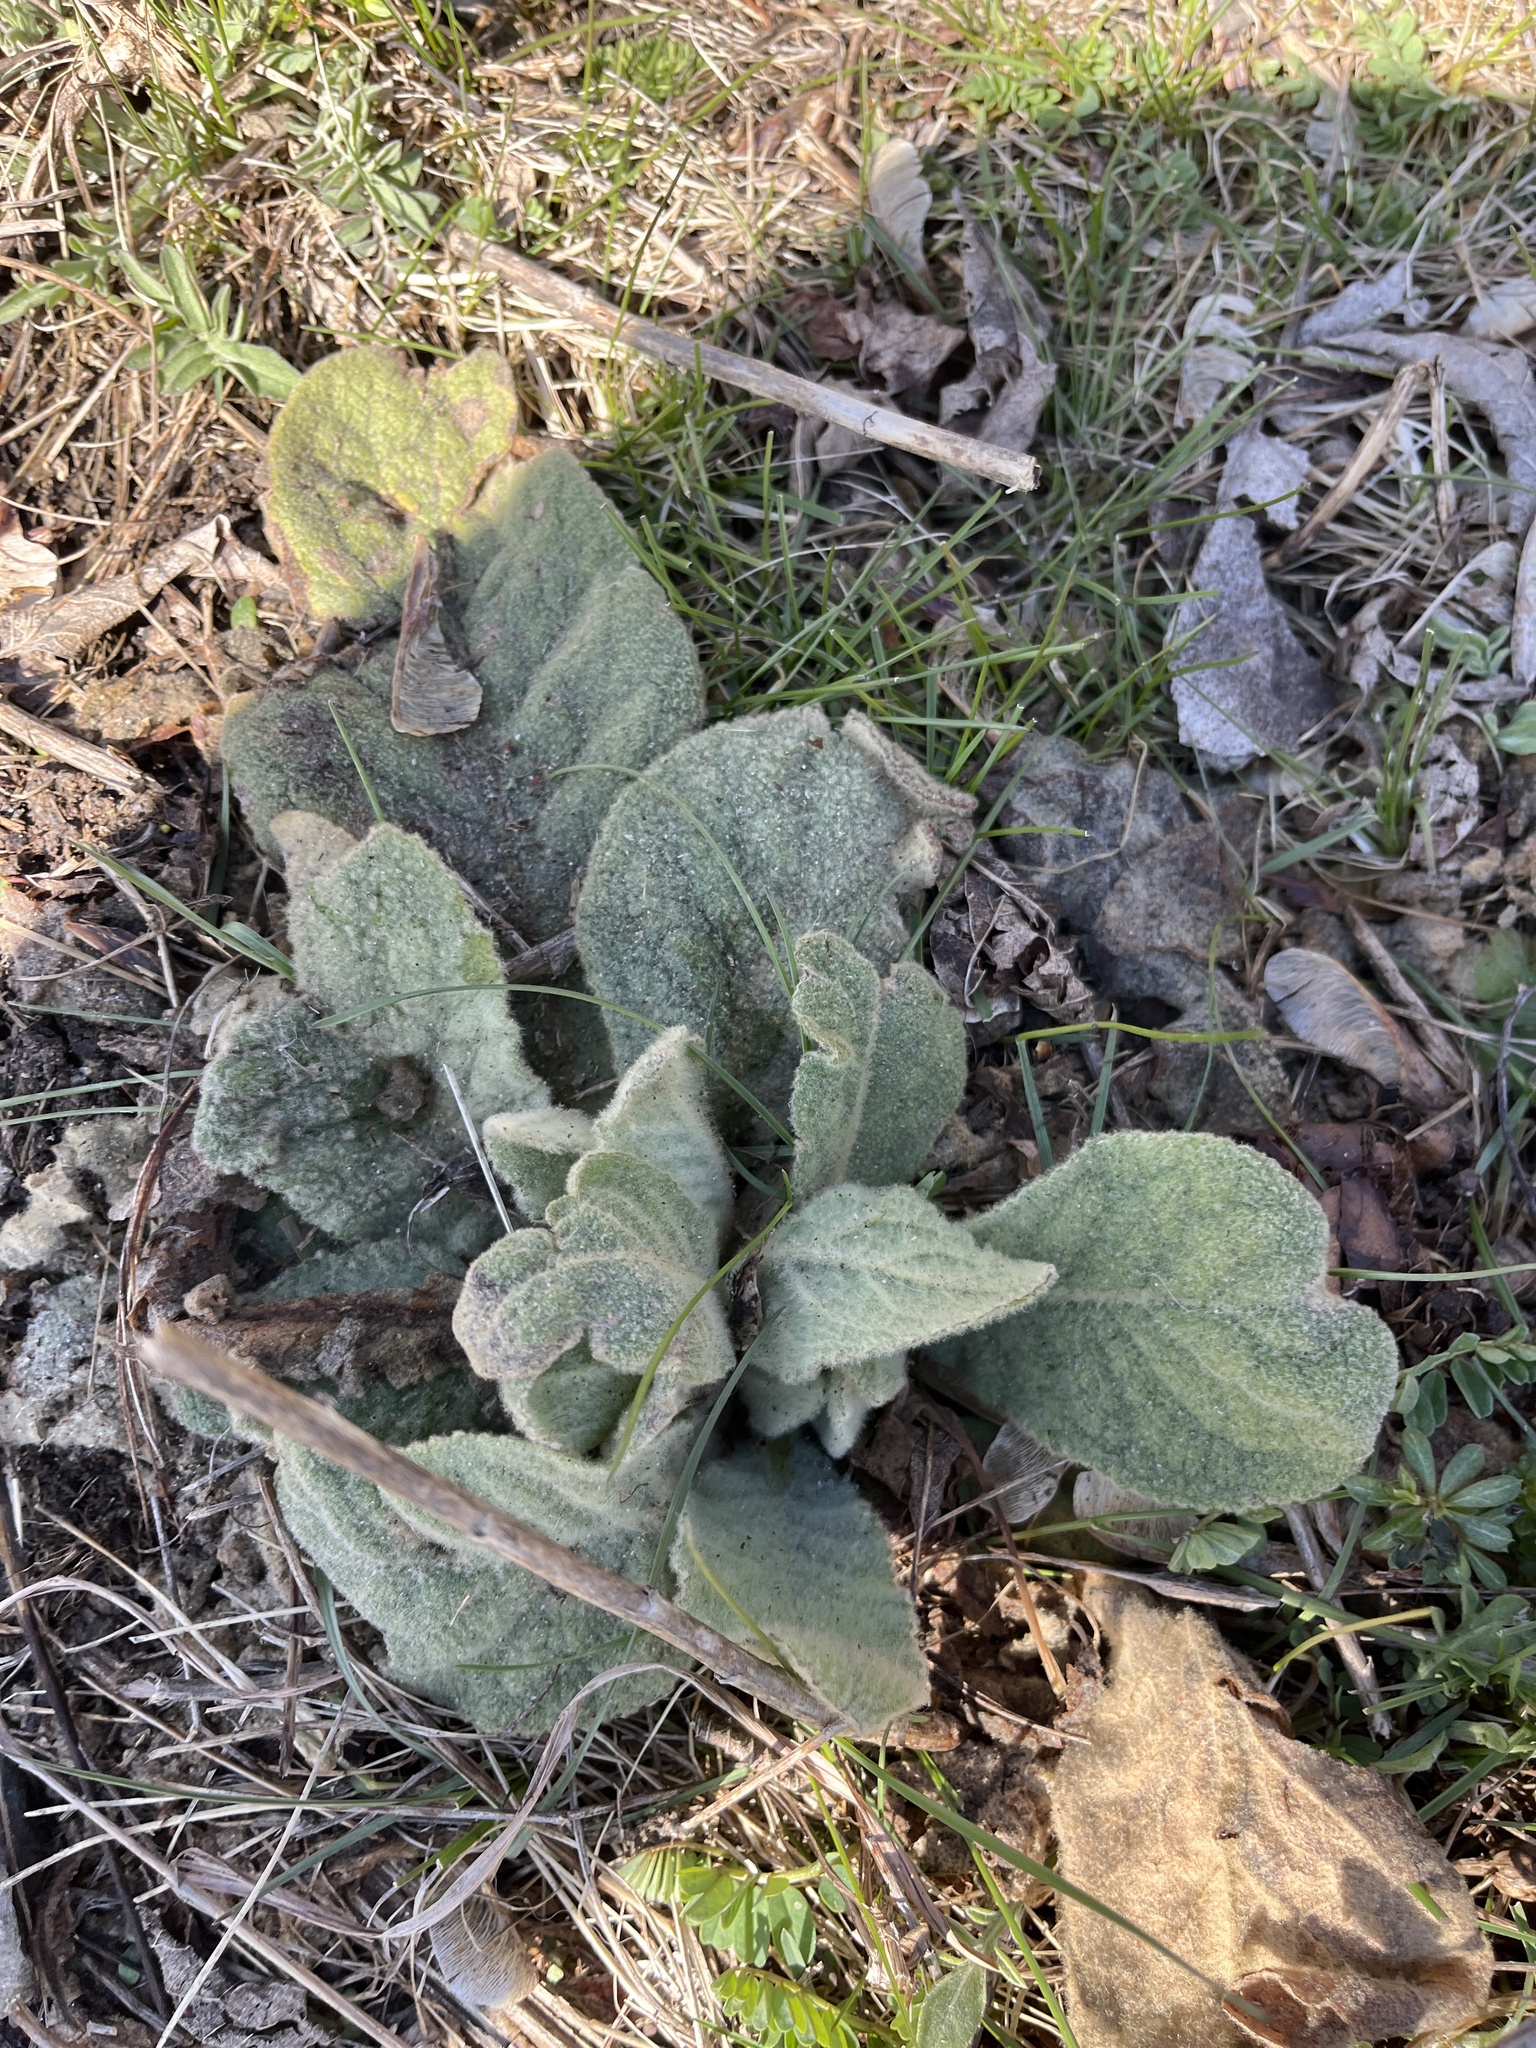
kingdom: Plantae
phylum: Tracheophyta
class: Magnoliopsida
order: Lamiales
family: Scrophulariaceae
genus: Verbascum
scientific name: Verbascum thapsus
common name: Common mullein
